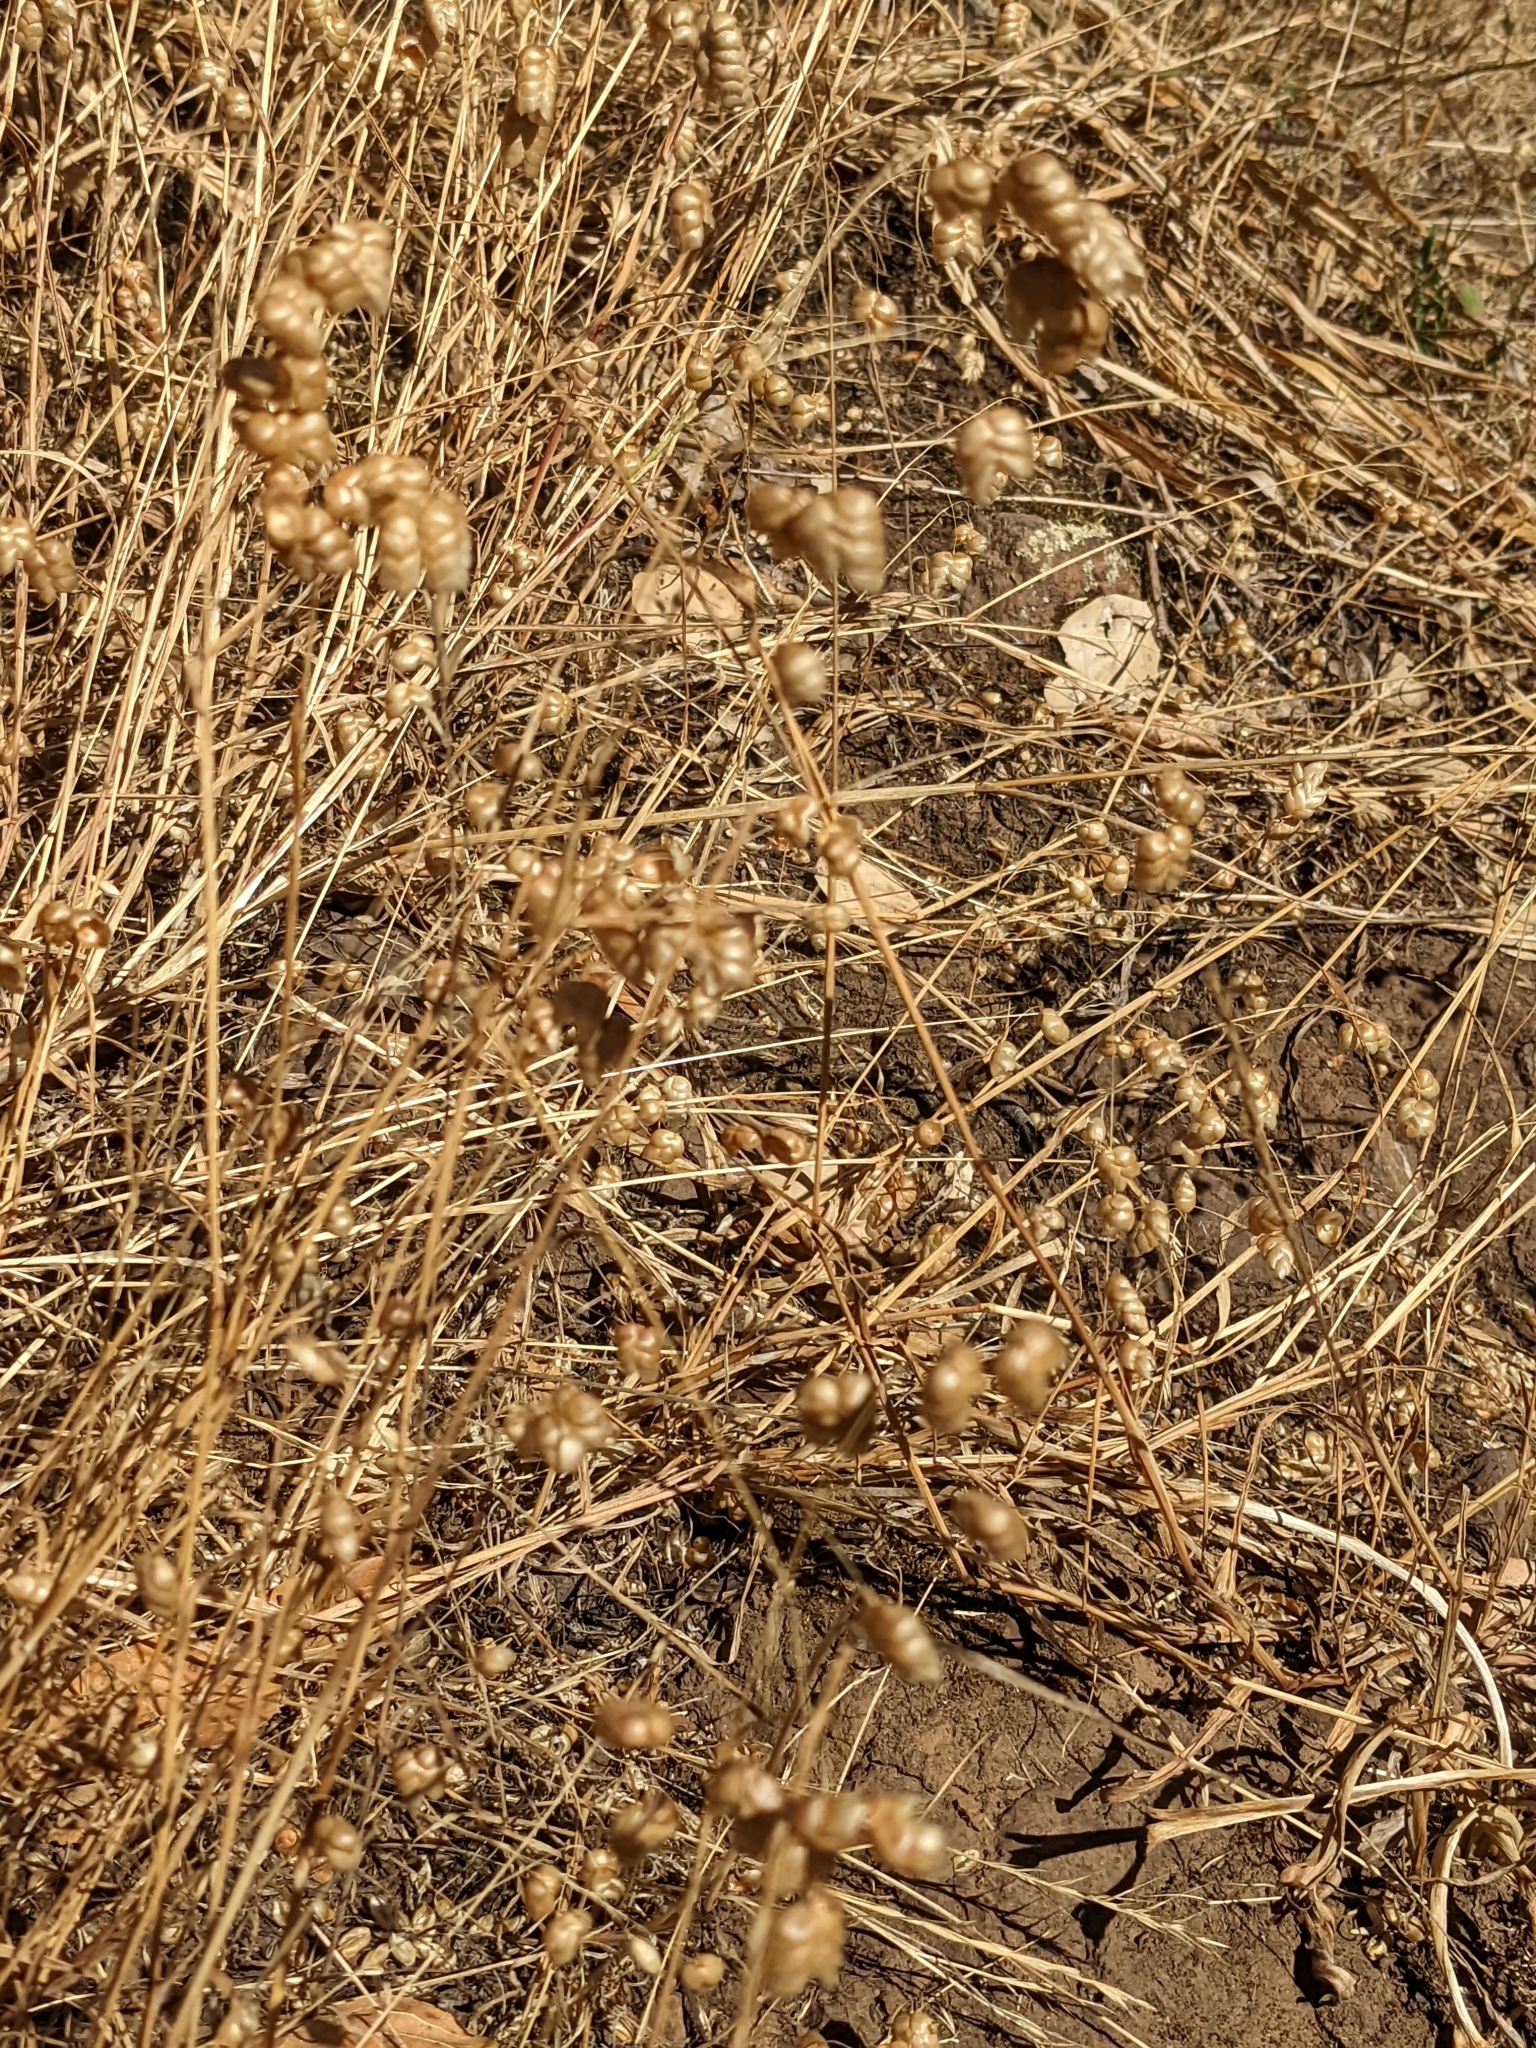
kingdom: Plantae
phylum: Tracheophyta
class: Liliopsida
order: Poales
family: Poaceae
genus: Briza
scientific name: Briza maxima
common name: Big quakinggrass
